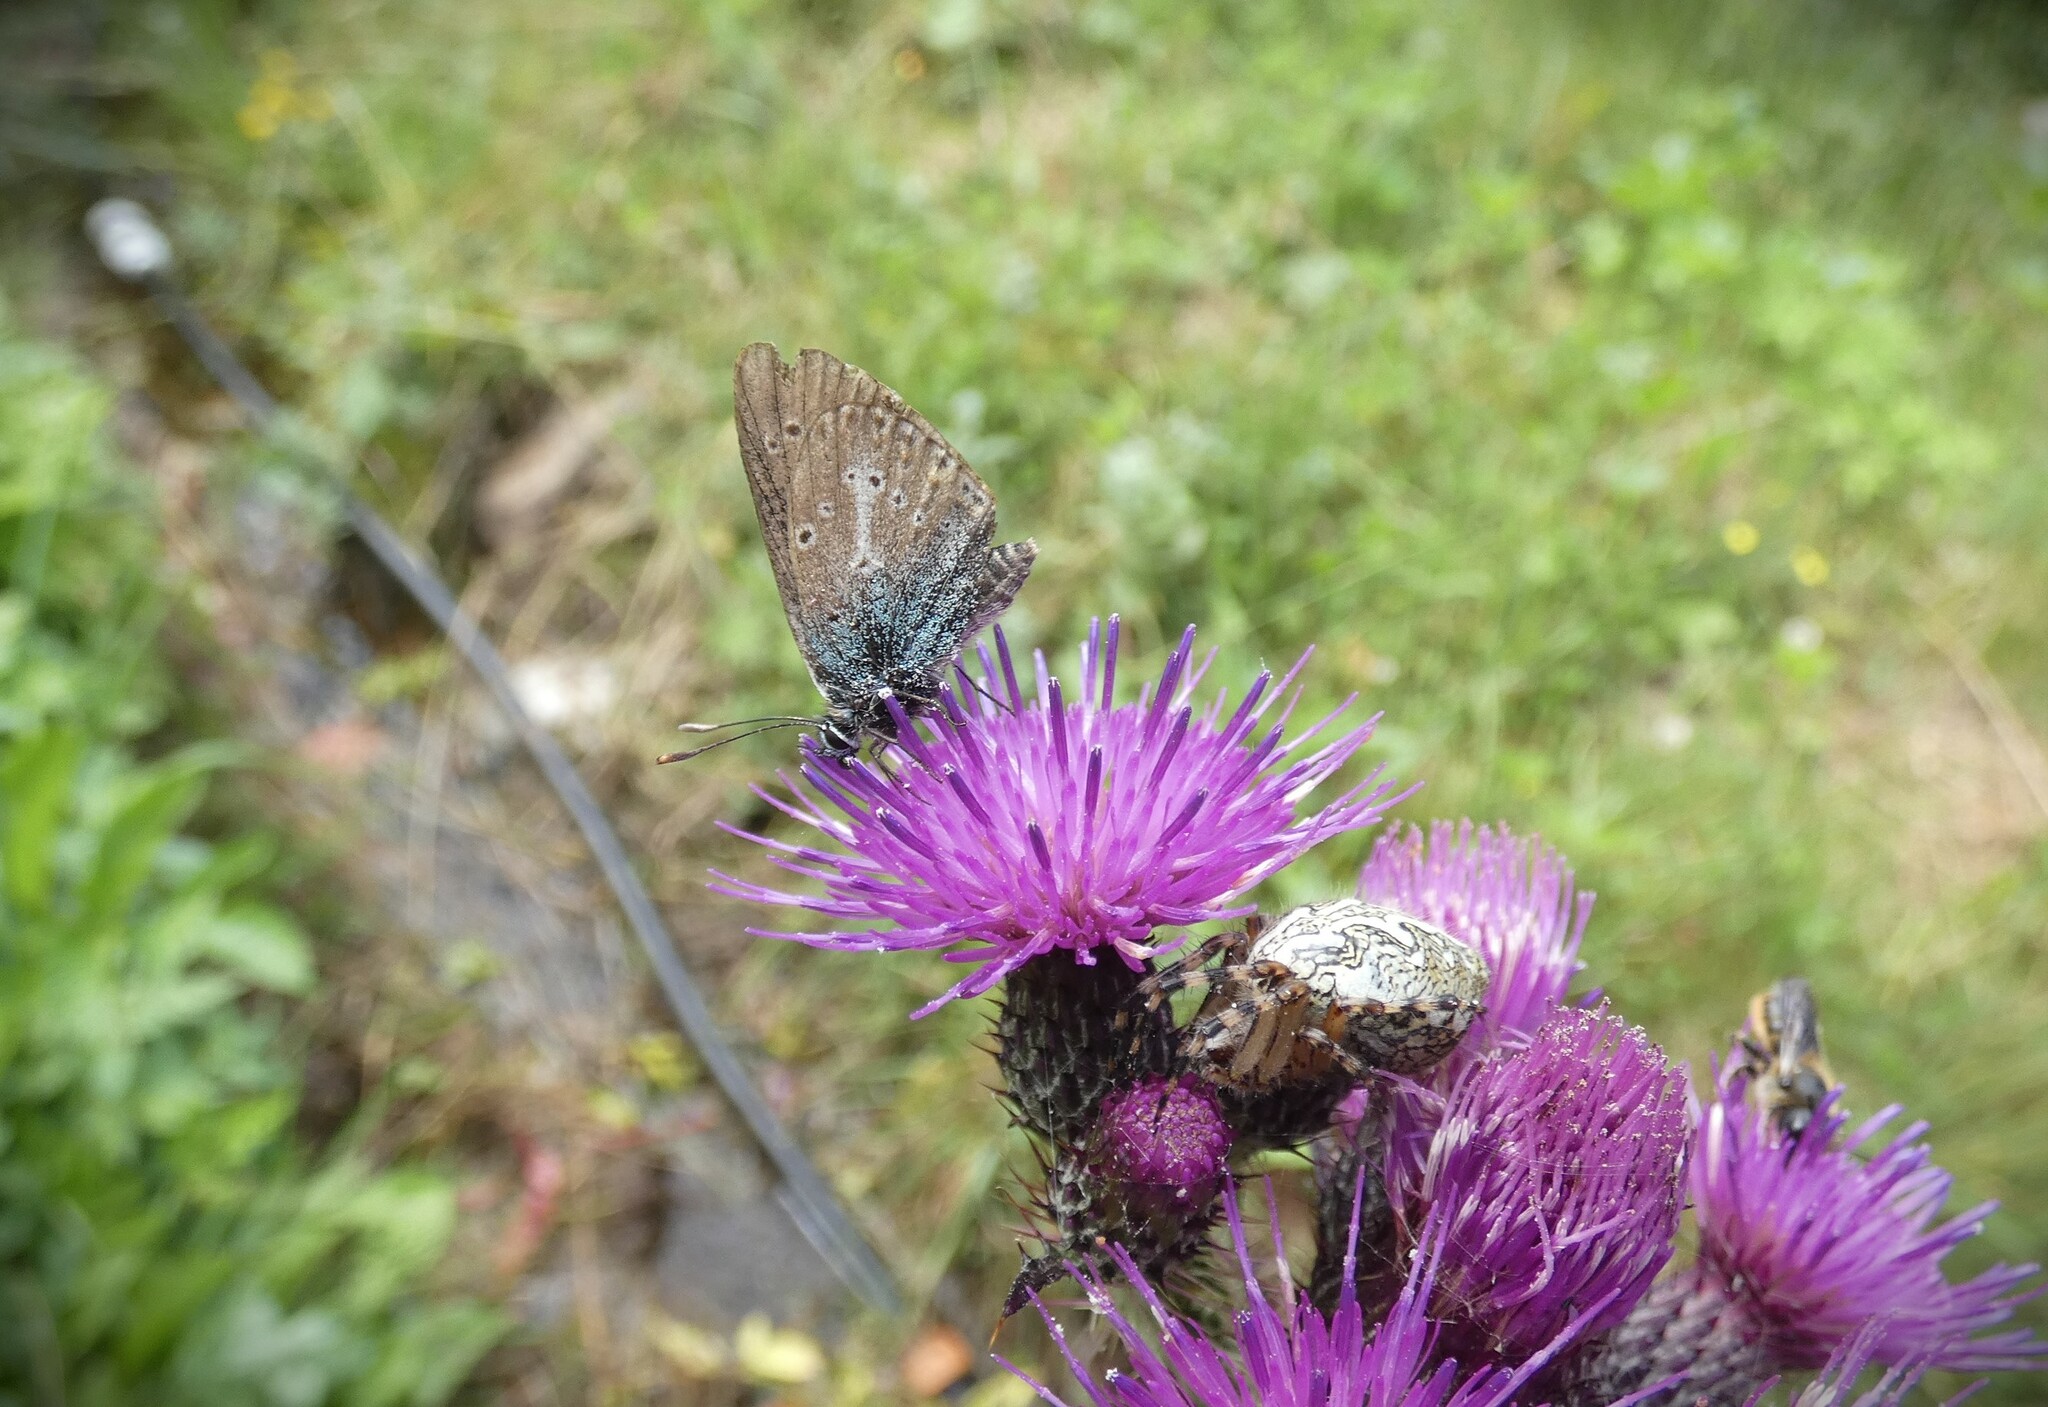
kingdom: Animalia
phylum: Arthropoda
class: Insecta
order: Lepidoptera
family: Lycaenidae
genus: Eumedonia
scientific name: Eumedonia eumedon
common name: Geranium argus
